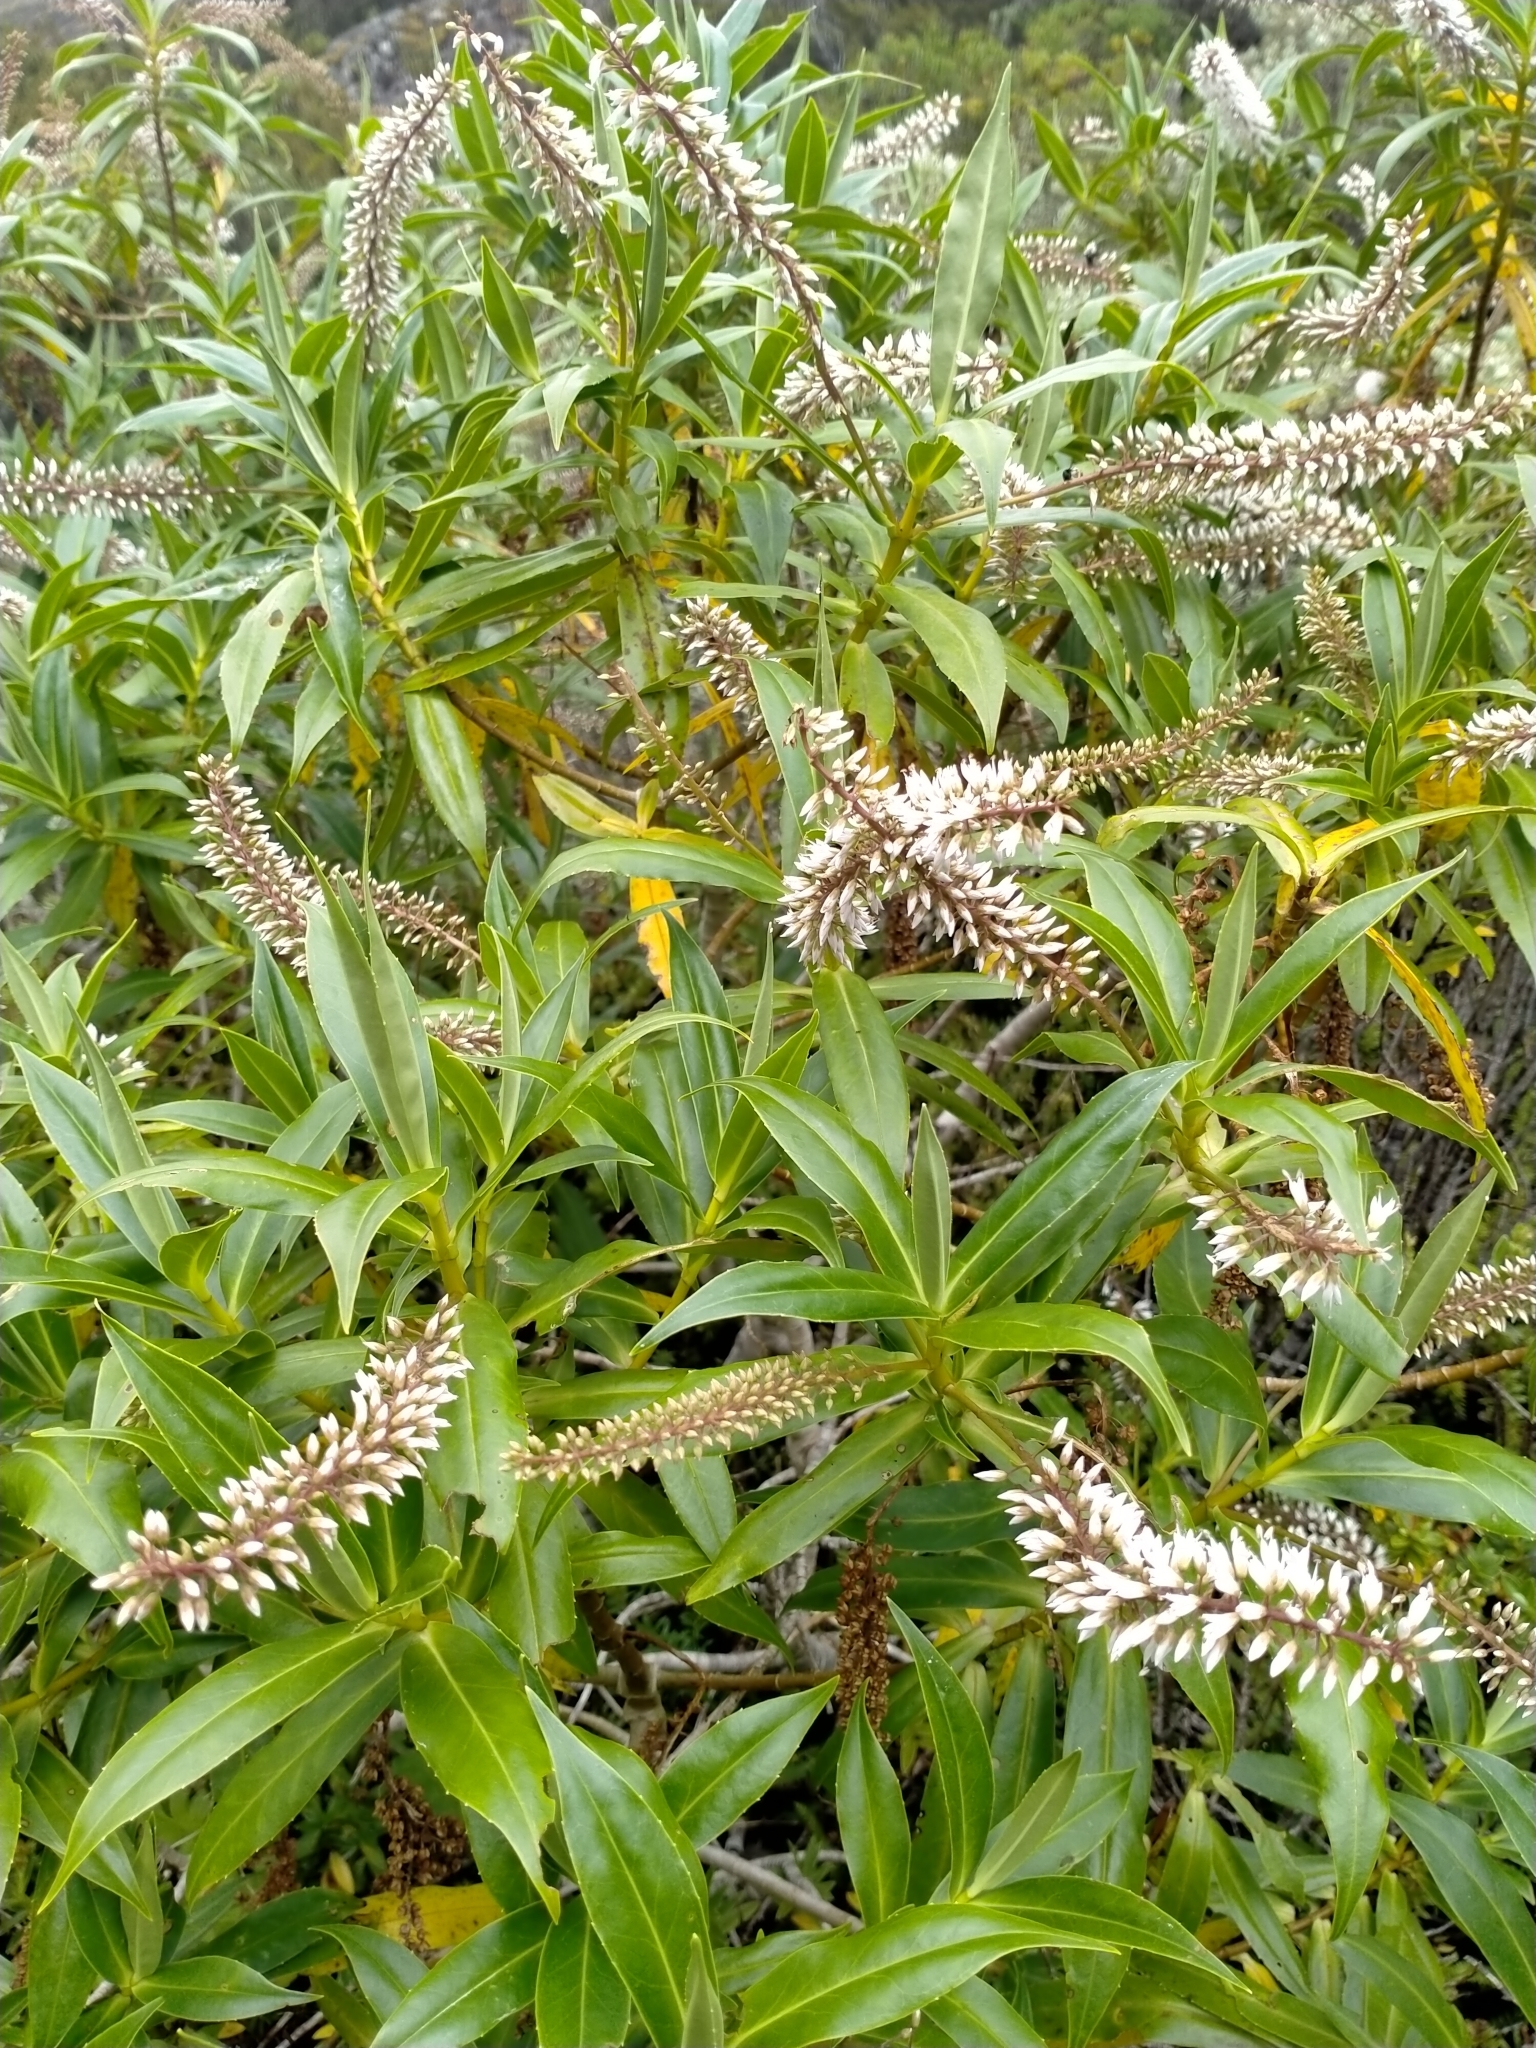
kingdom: Plantae
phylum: Tracheophyta
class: Magnoliopsida
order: Lamiales
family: Plantaginaceae
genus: Veronica
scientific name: Veronica salicifolia
